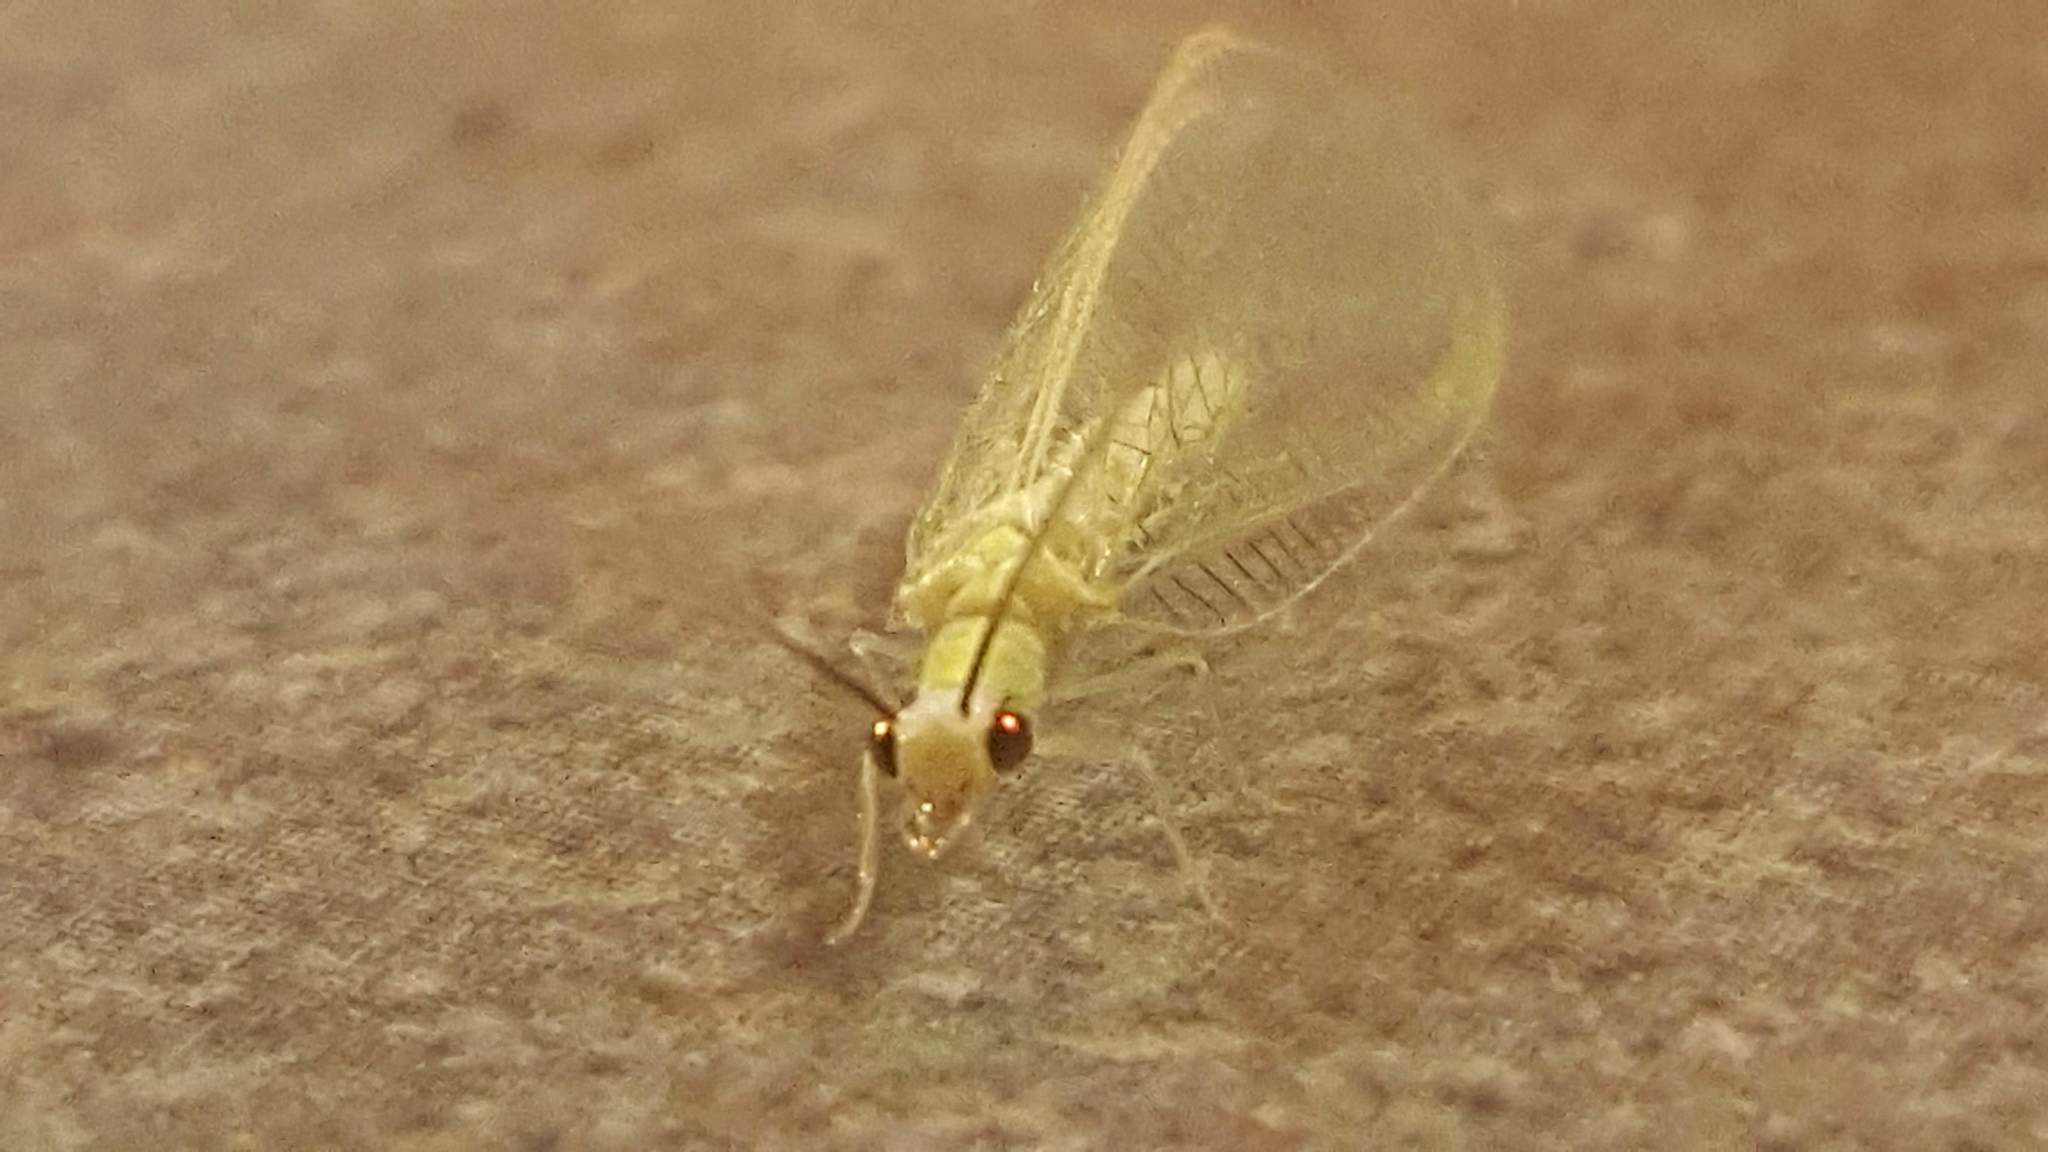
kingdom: Animalia
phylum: Arthropoda
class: Insecta
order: Neuroptera
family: Chrysopidae
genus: Chrysopa
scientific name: Chrysopa nigricornis
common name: Black-horned green lacewing
